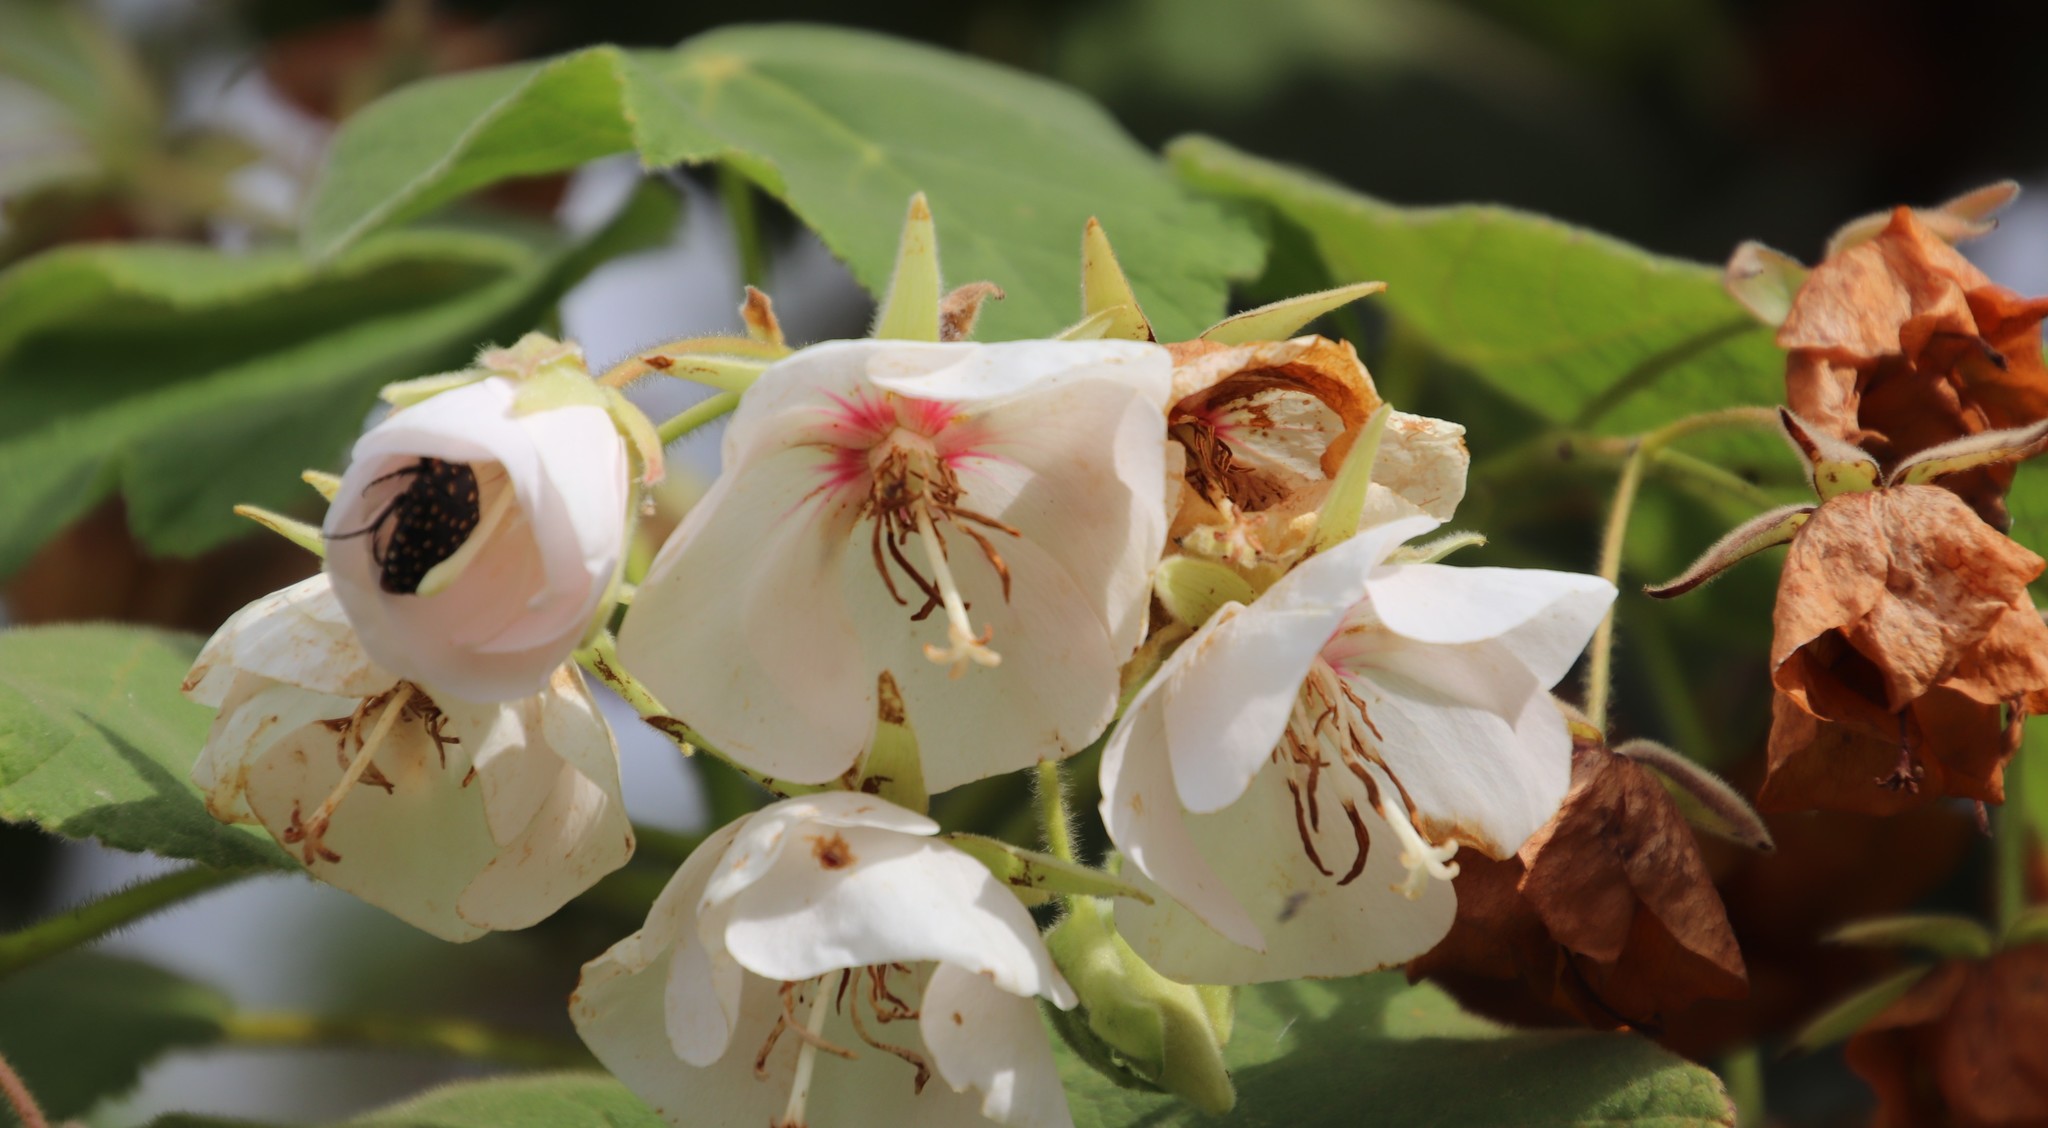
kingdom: Plantae
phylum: Tracheophyta
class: Magnoliopsida
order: Malvales
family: Malvaceae
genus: Dombeya
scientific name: Dombeya pulchra
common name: Silver dombeya
